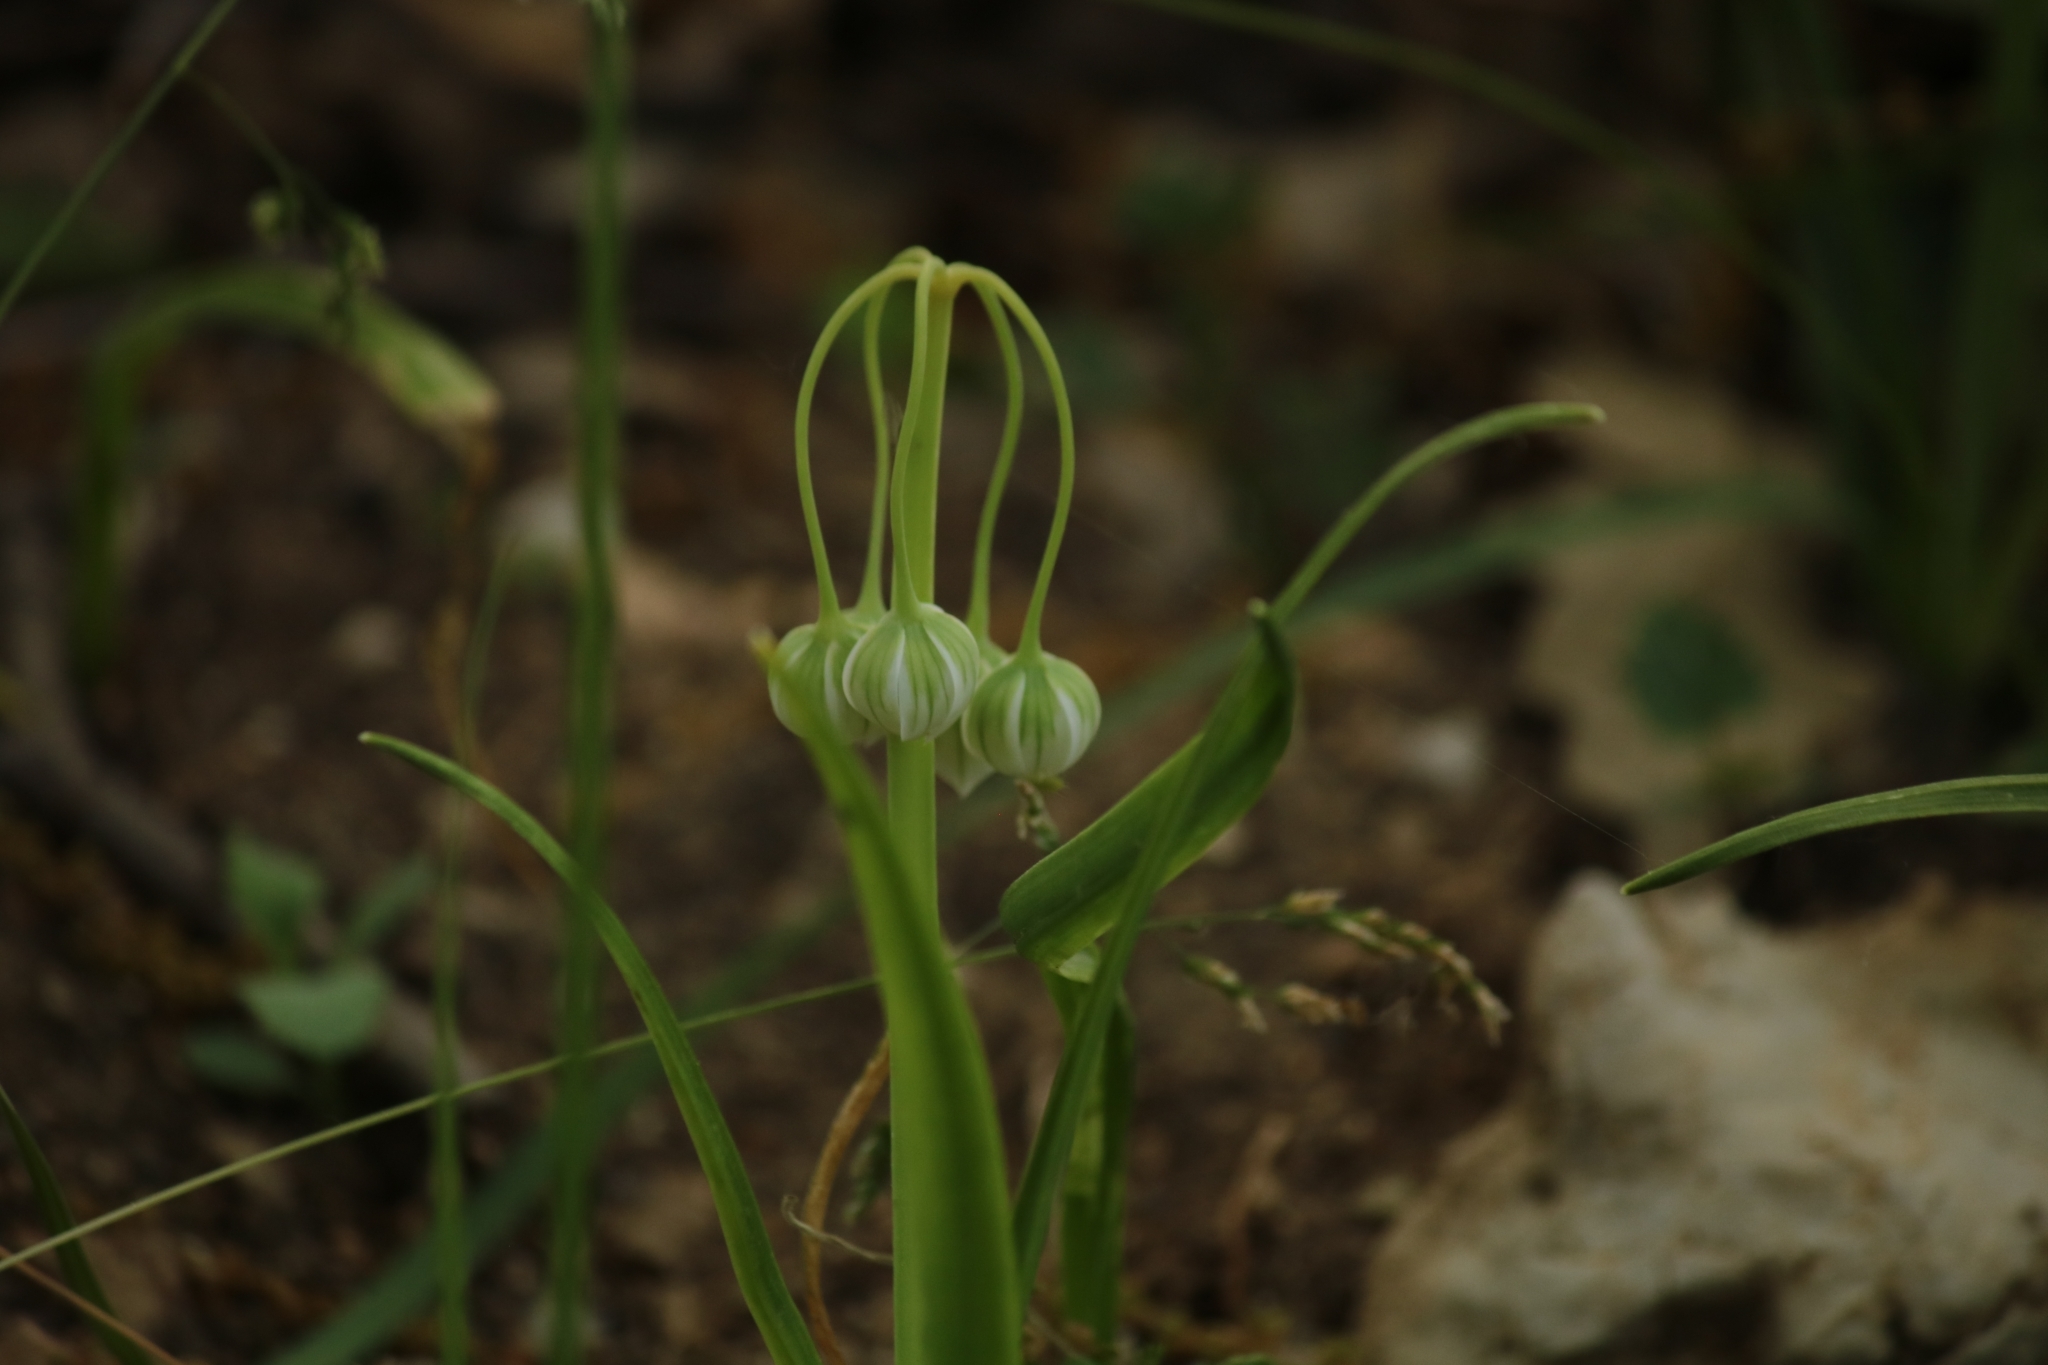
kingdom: Plantae
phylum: Tracheophyta
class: Liliopsida
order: Asparagales
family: Amaryllidaceae
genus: Allium
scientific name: Allium pendulinum
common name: Italian garlic
